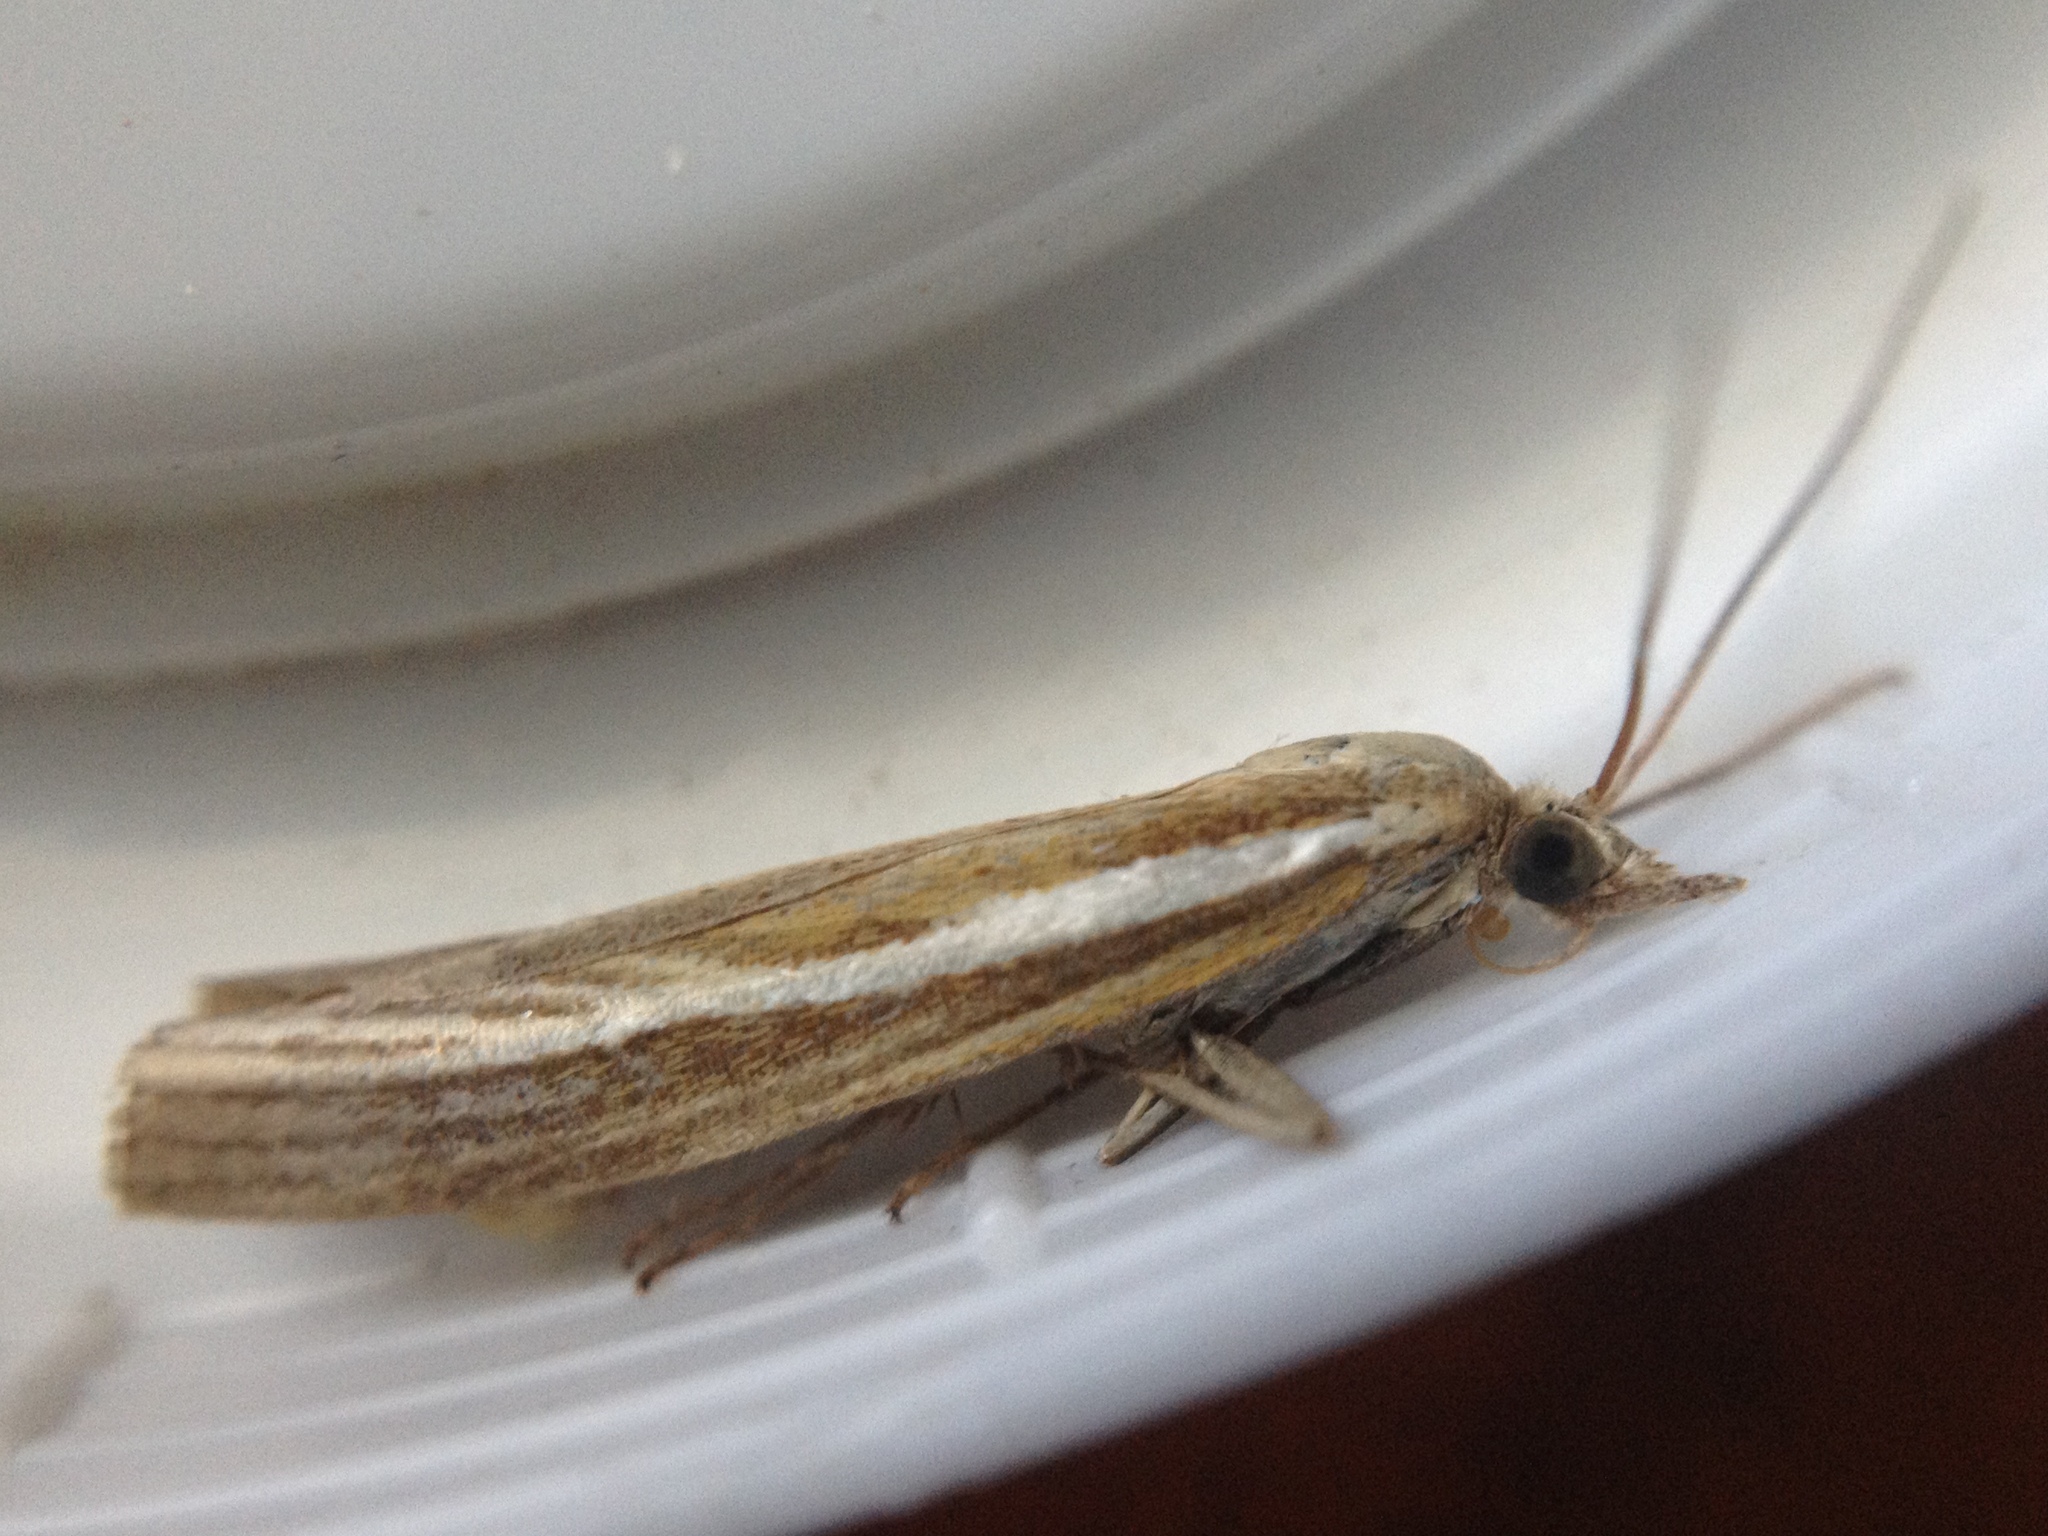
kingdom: Animalia
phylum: Arthropoda
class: Insecta
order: Lepidoptera
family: Crambidae
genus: Agriphila
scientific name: Agriphila tristellus
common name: Common grass-veneer
